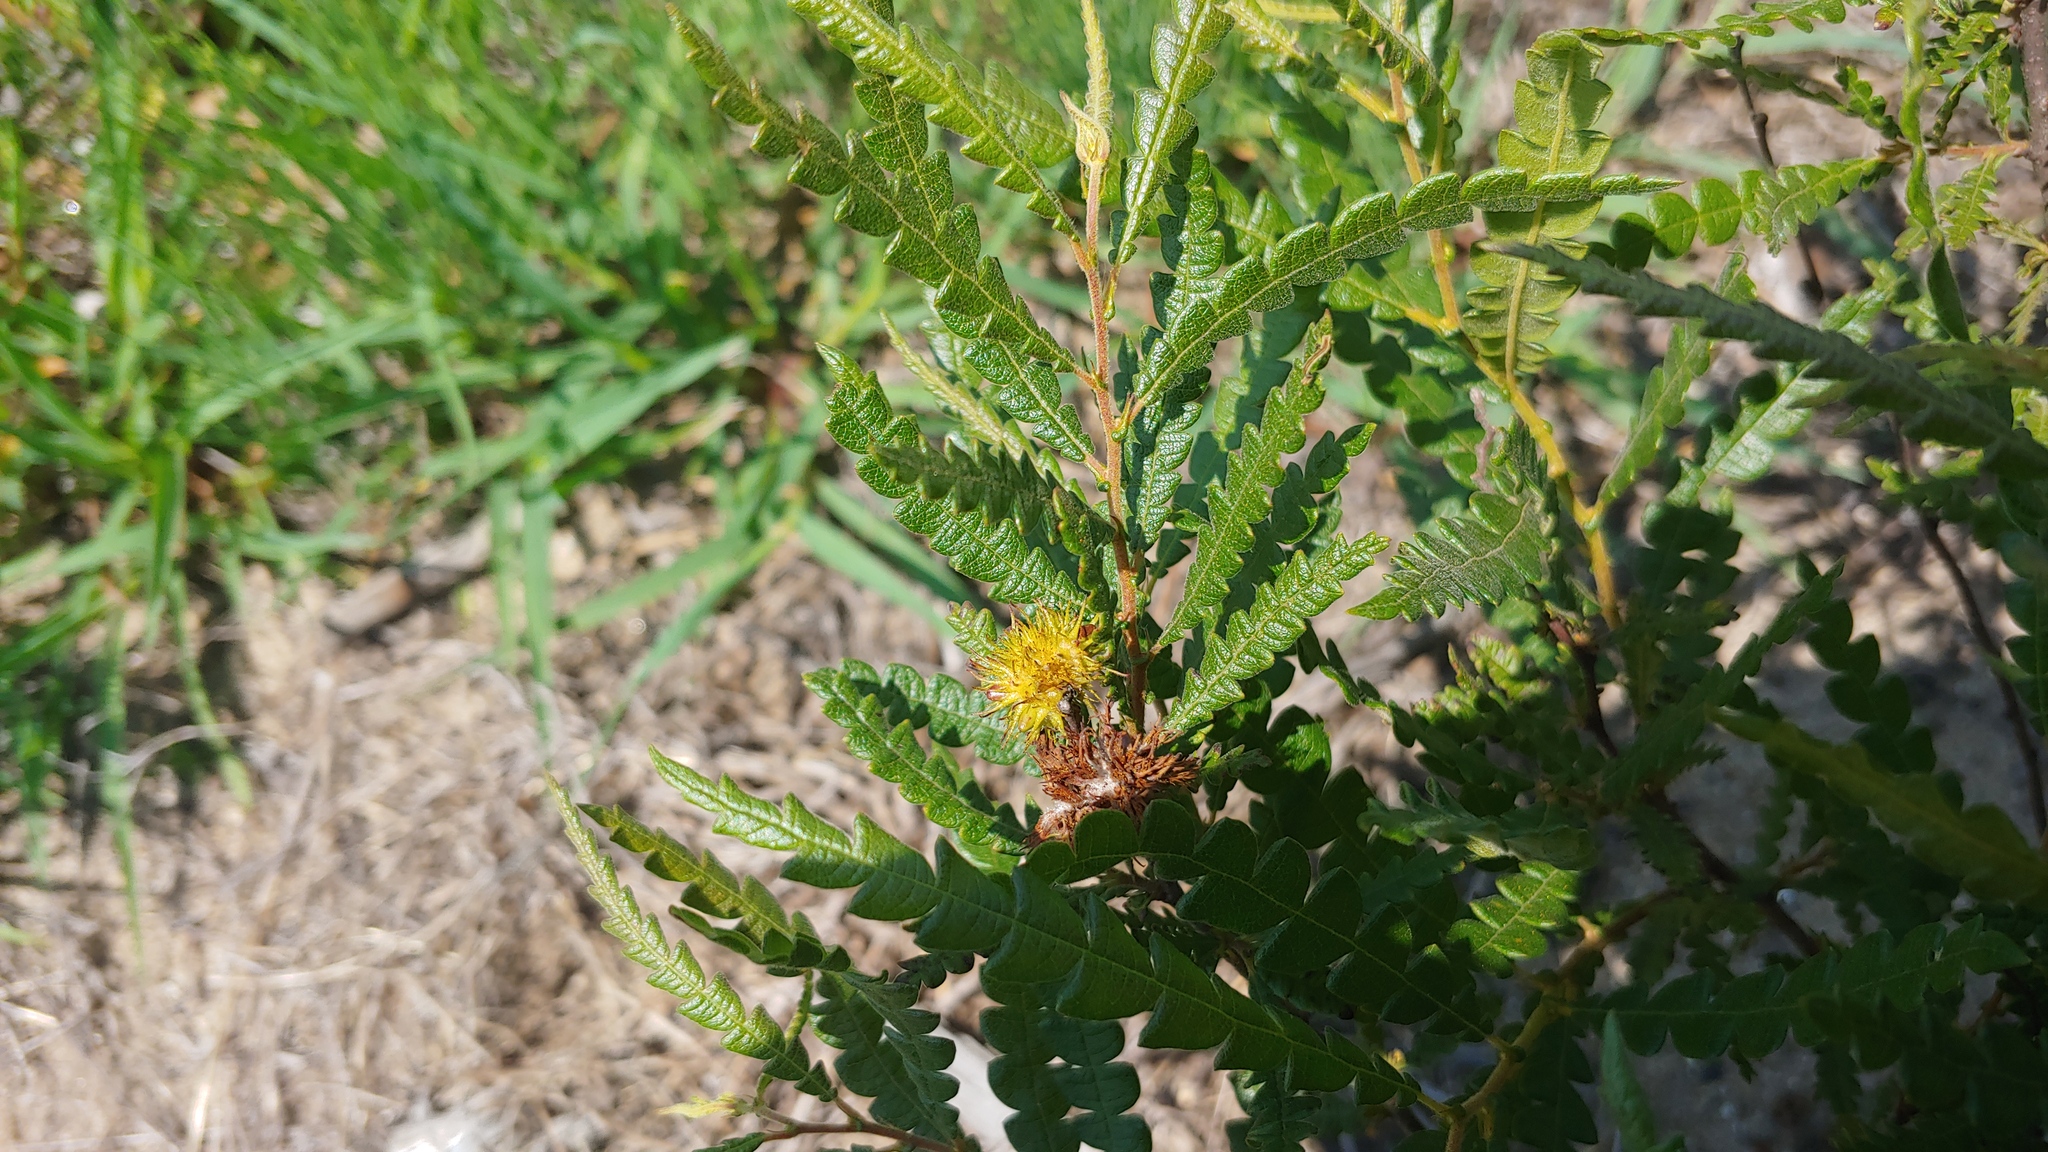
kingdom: Plantae
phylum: Tracheophyta
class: Magnoliopsida
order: Fagales
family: Myricaceae
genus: Comptonia
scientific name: Comptonia peregrina
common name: Sweet-fern
